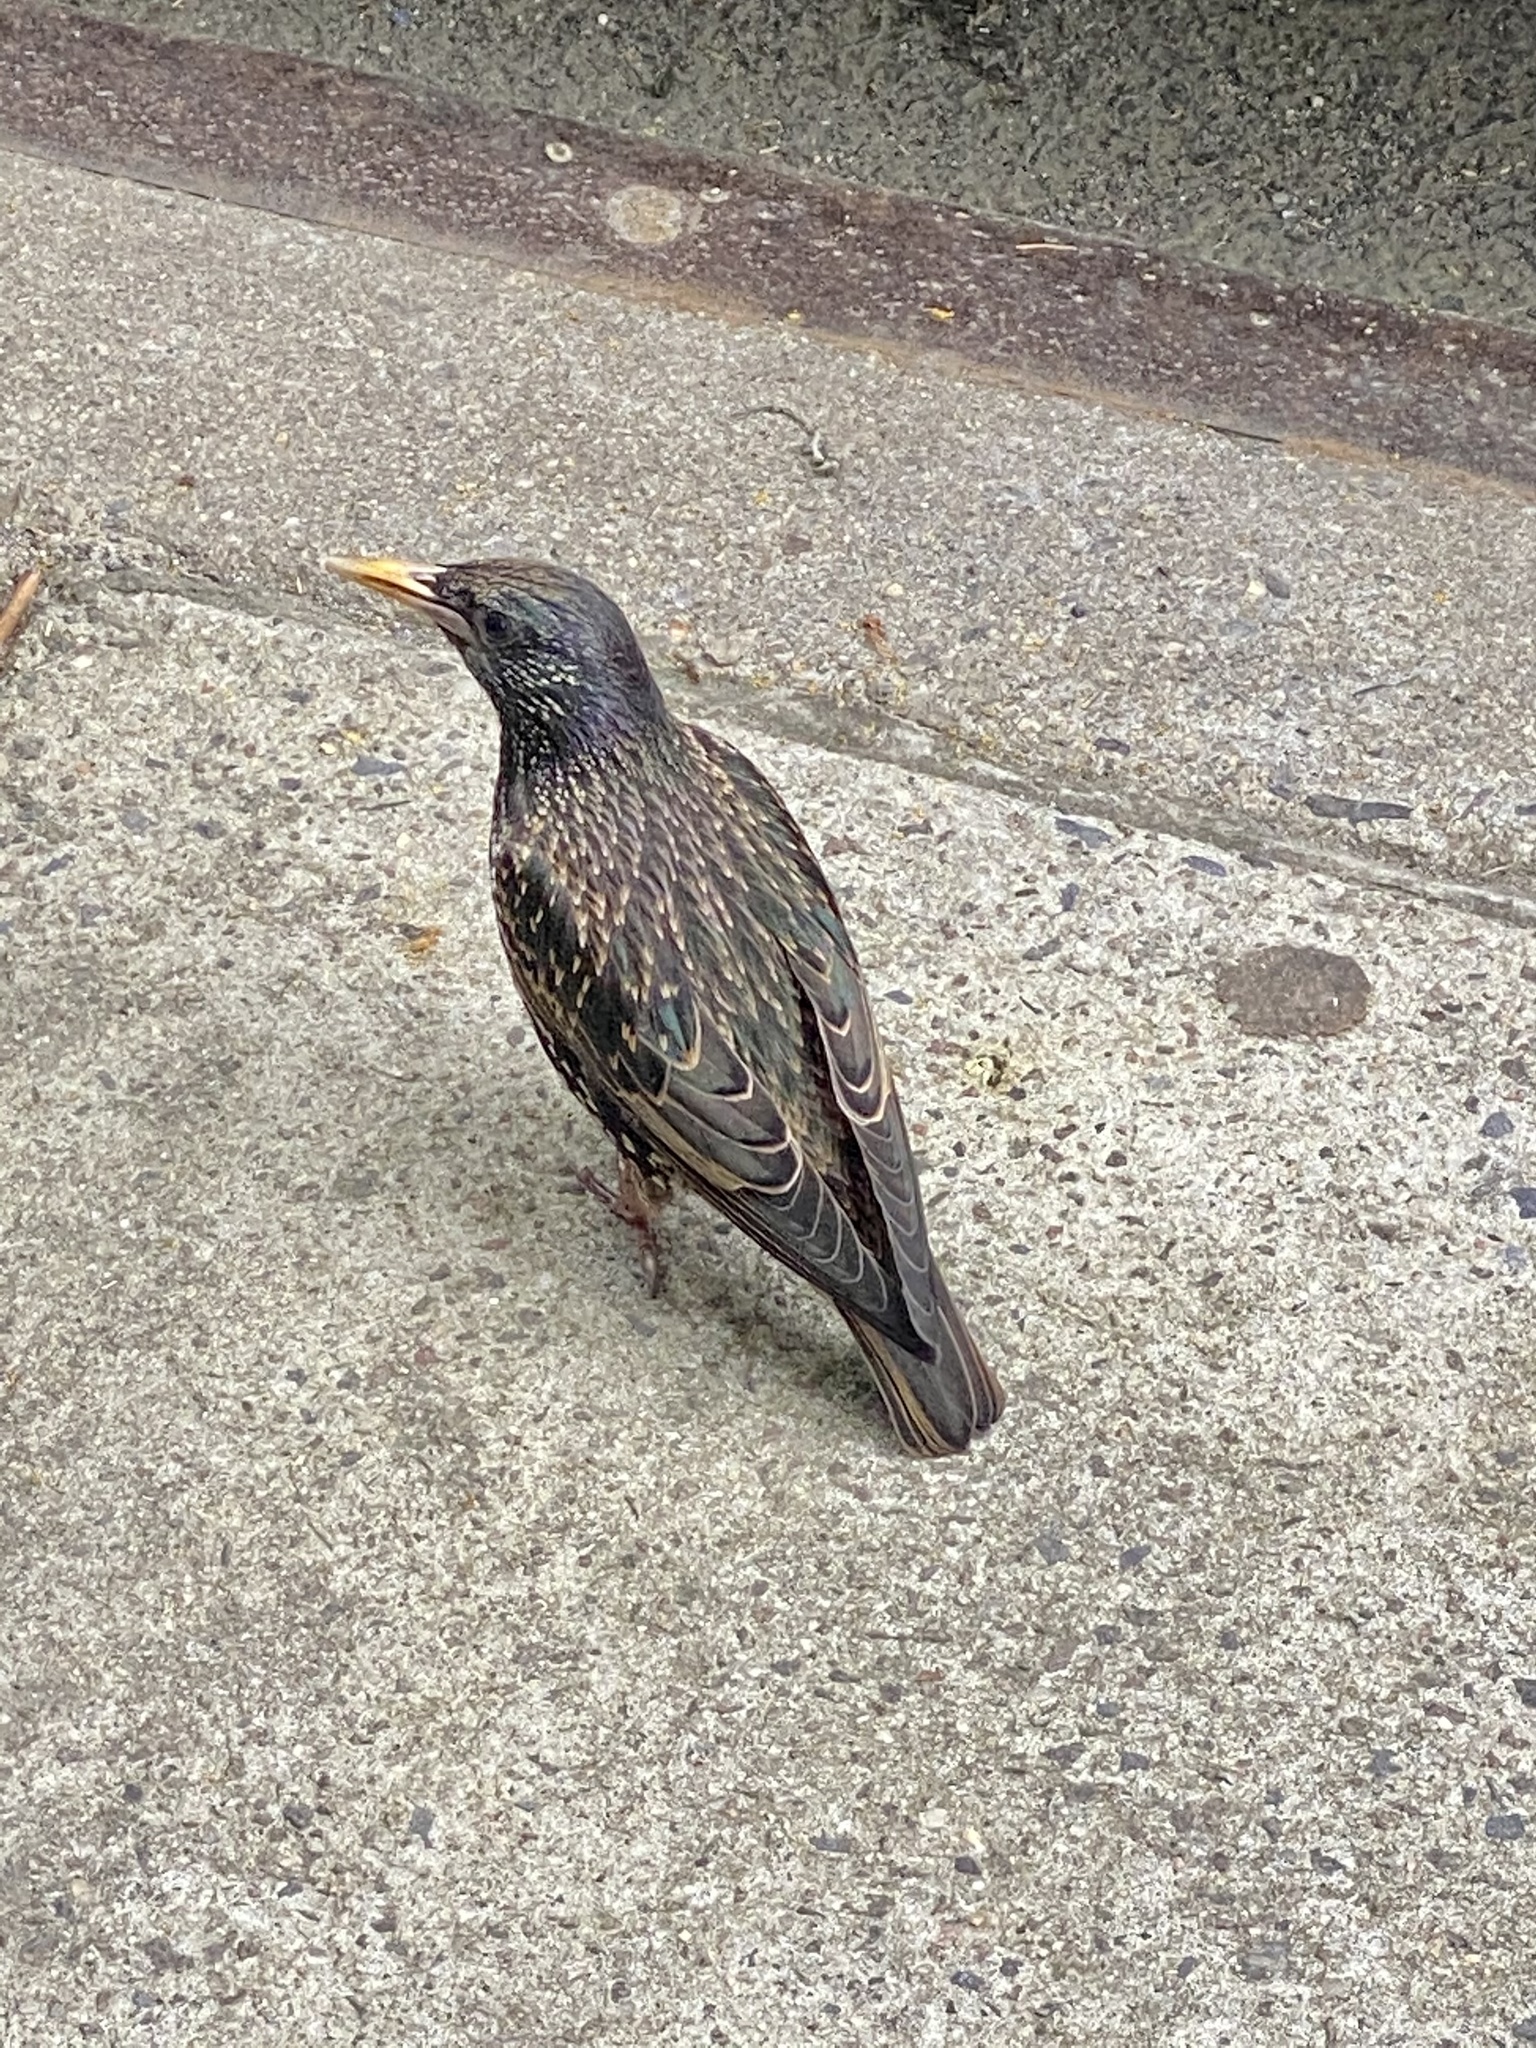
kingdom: Animalia
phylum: Chordata
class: Aves
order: Passeriformes
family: Sturnidae
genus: Sturnus
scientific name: Sturnus vulgaris
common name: Common starling
